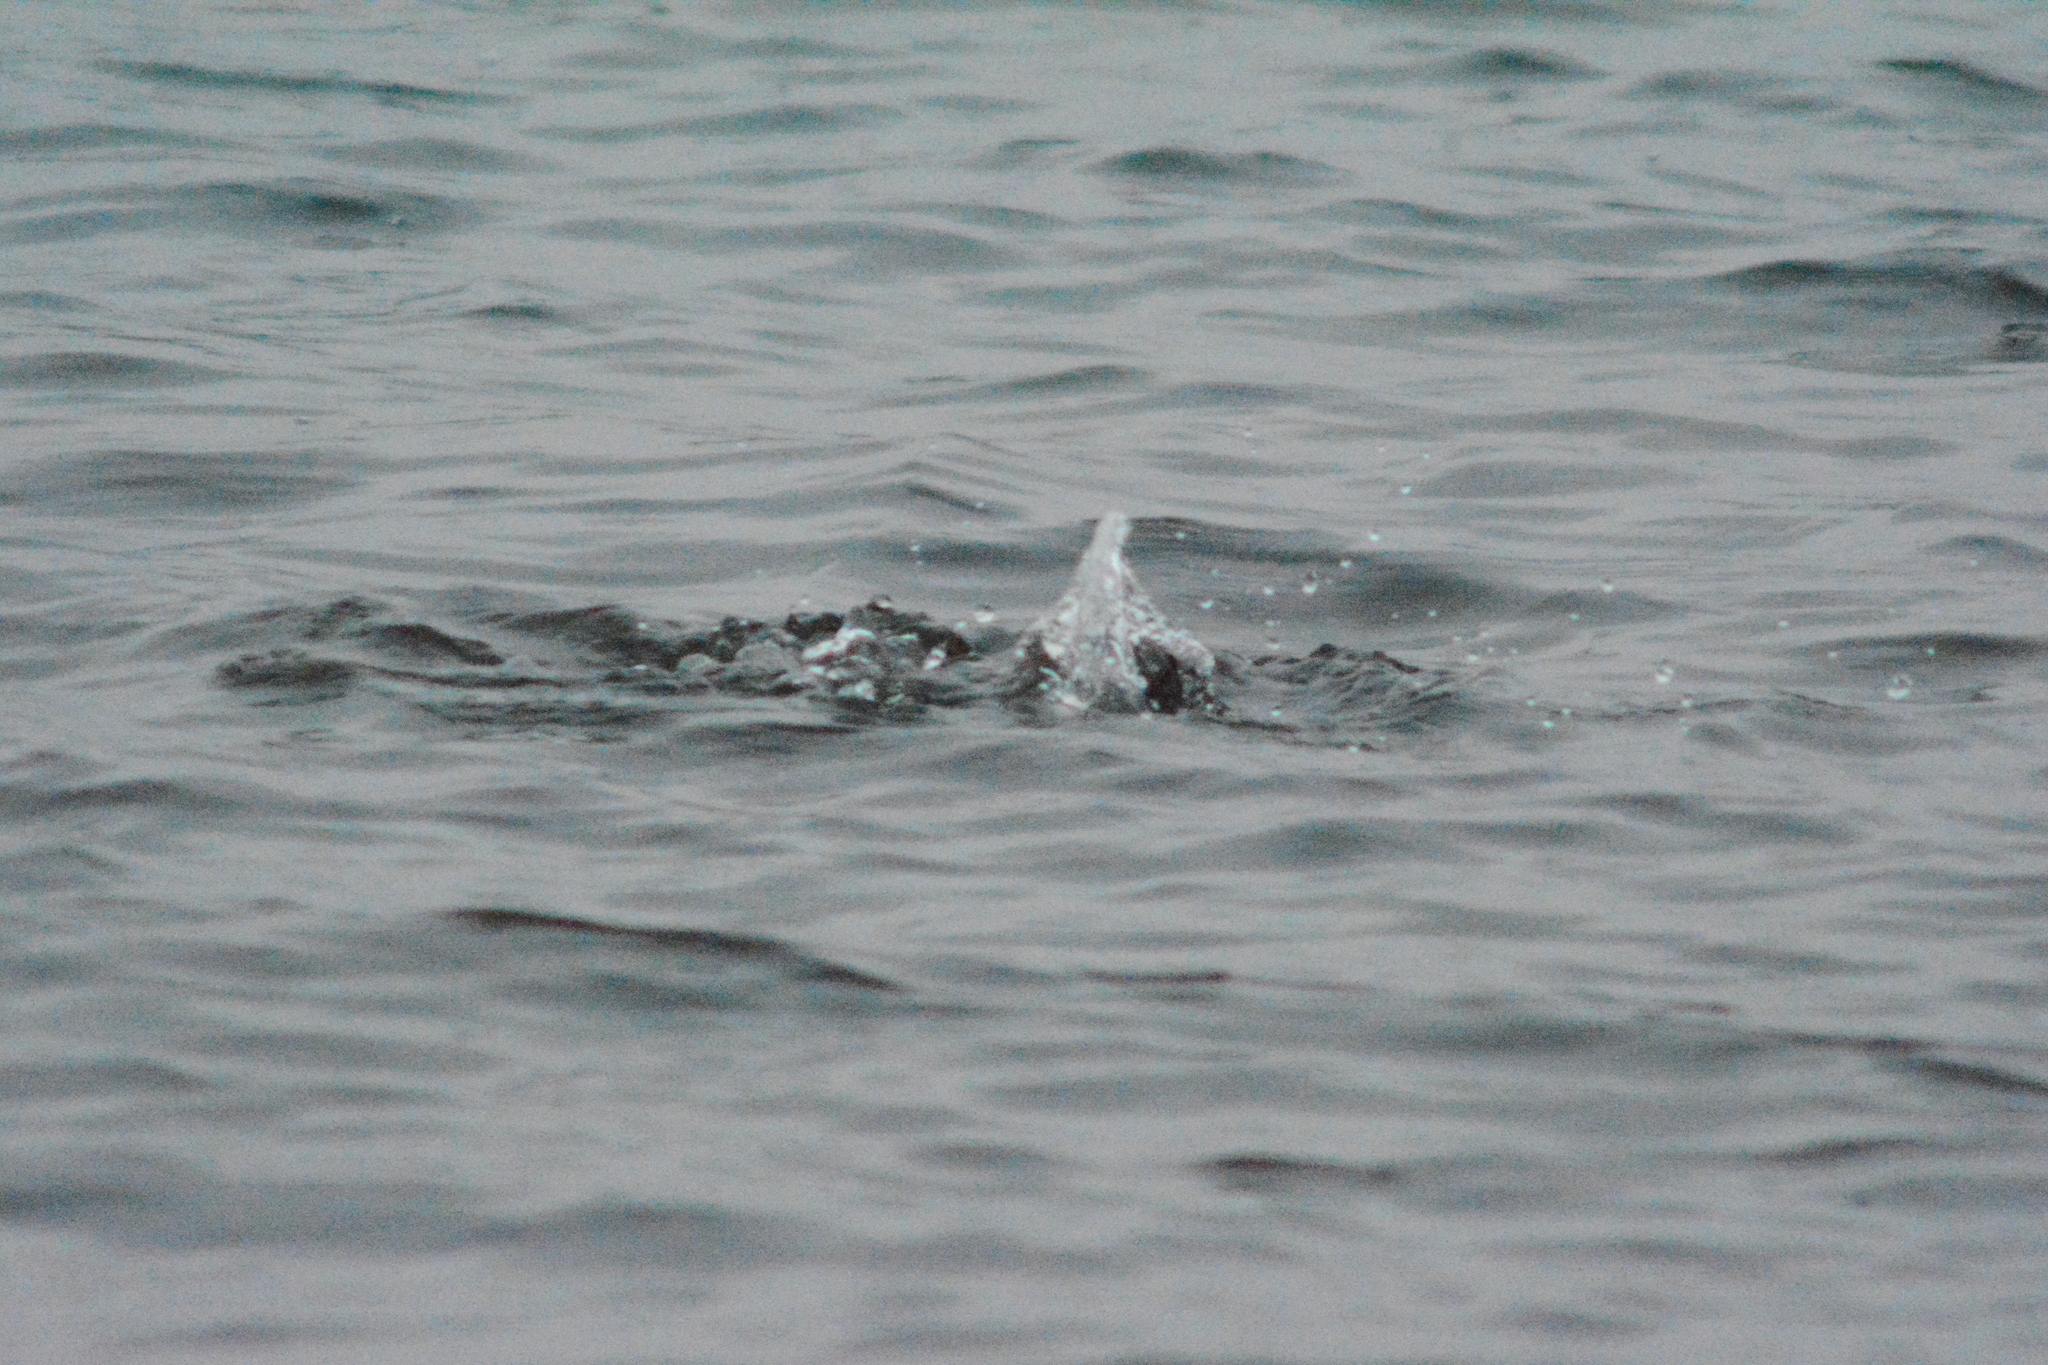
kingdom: Animalia
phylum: Chordata
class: Aves
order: Anseriformes
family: Anatidae
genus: Aythya
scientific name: Aythya fuligula
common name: Tufted duck
